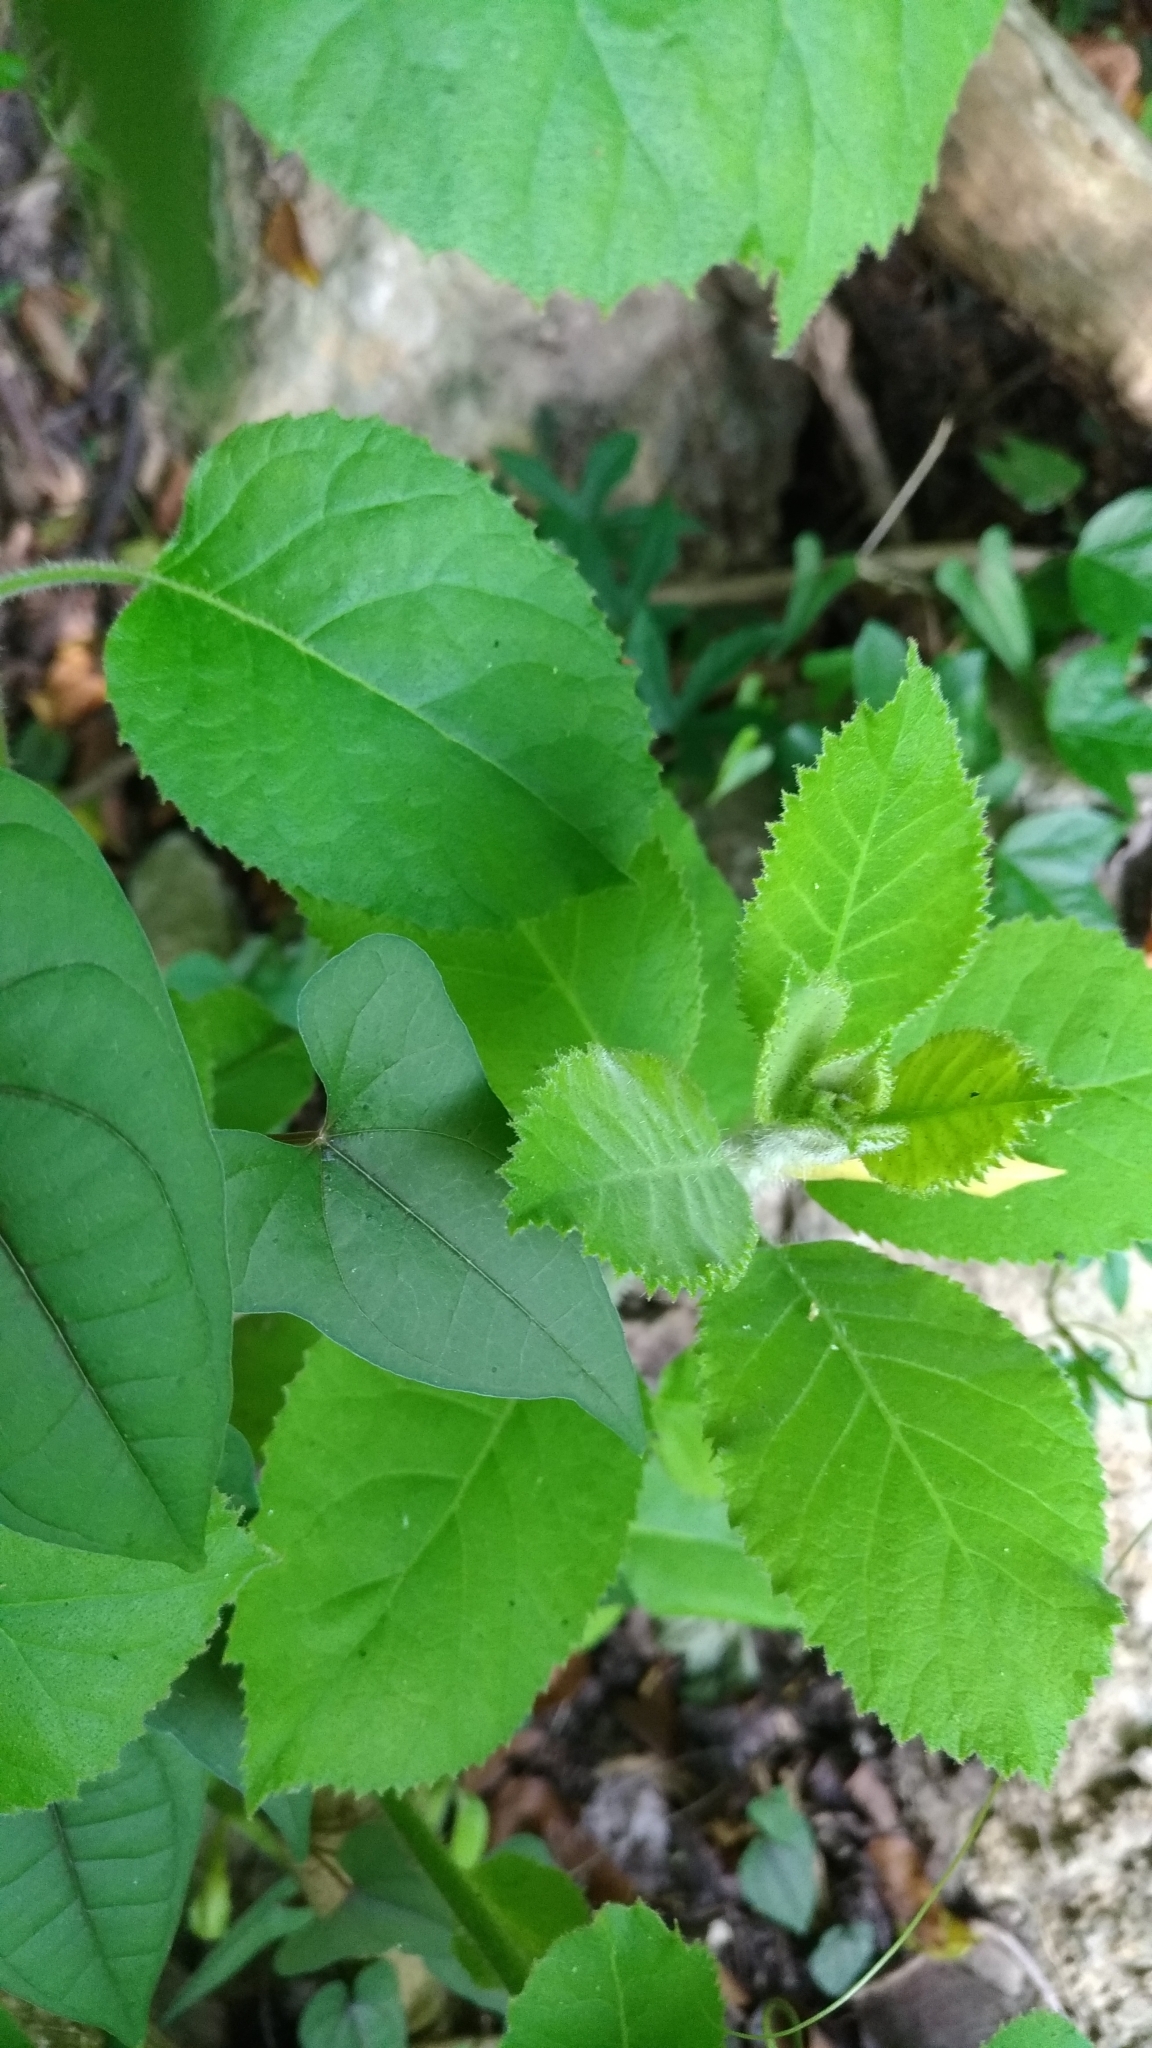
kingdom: Plantae
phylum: Tracheophyta
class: Magnoliopsida
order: Boraginales
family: Ehretiaceae
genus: Ehretia
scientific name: Ehretia dicksonii
